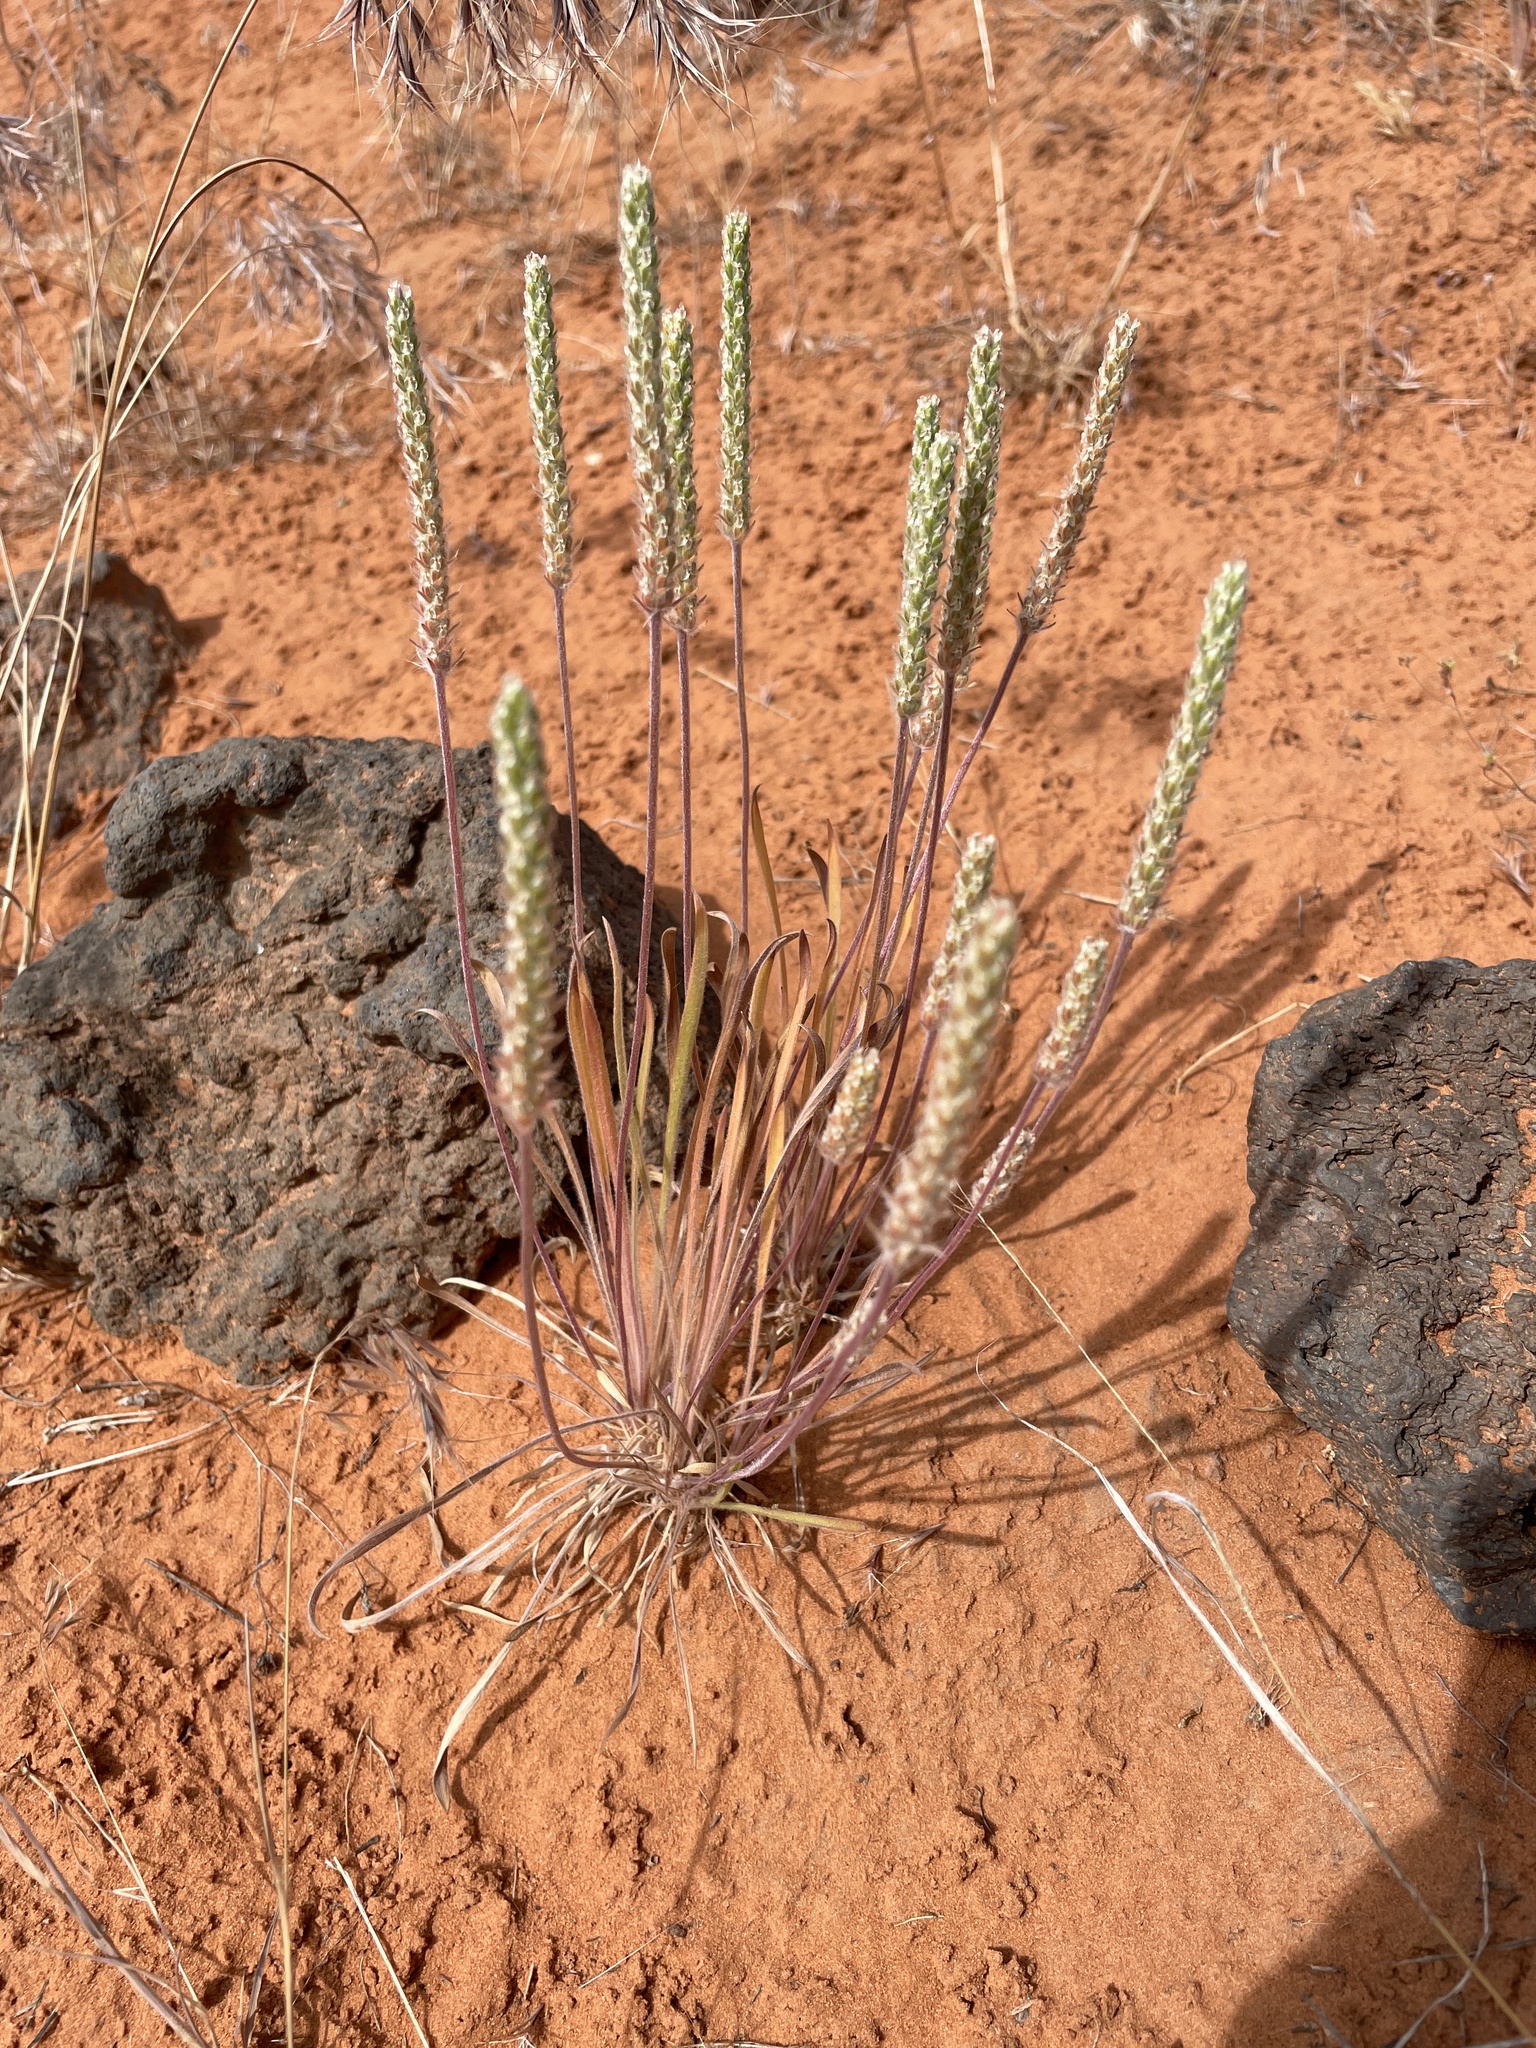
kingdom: Plantae
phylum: Tracheophyta
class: Magnoliopsida
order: Lamiales
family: Plantaginaceae
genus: Plantago
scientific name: Plantago patagonica
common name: Patagonia indian-wheat
